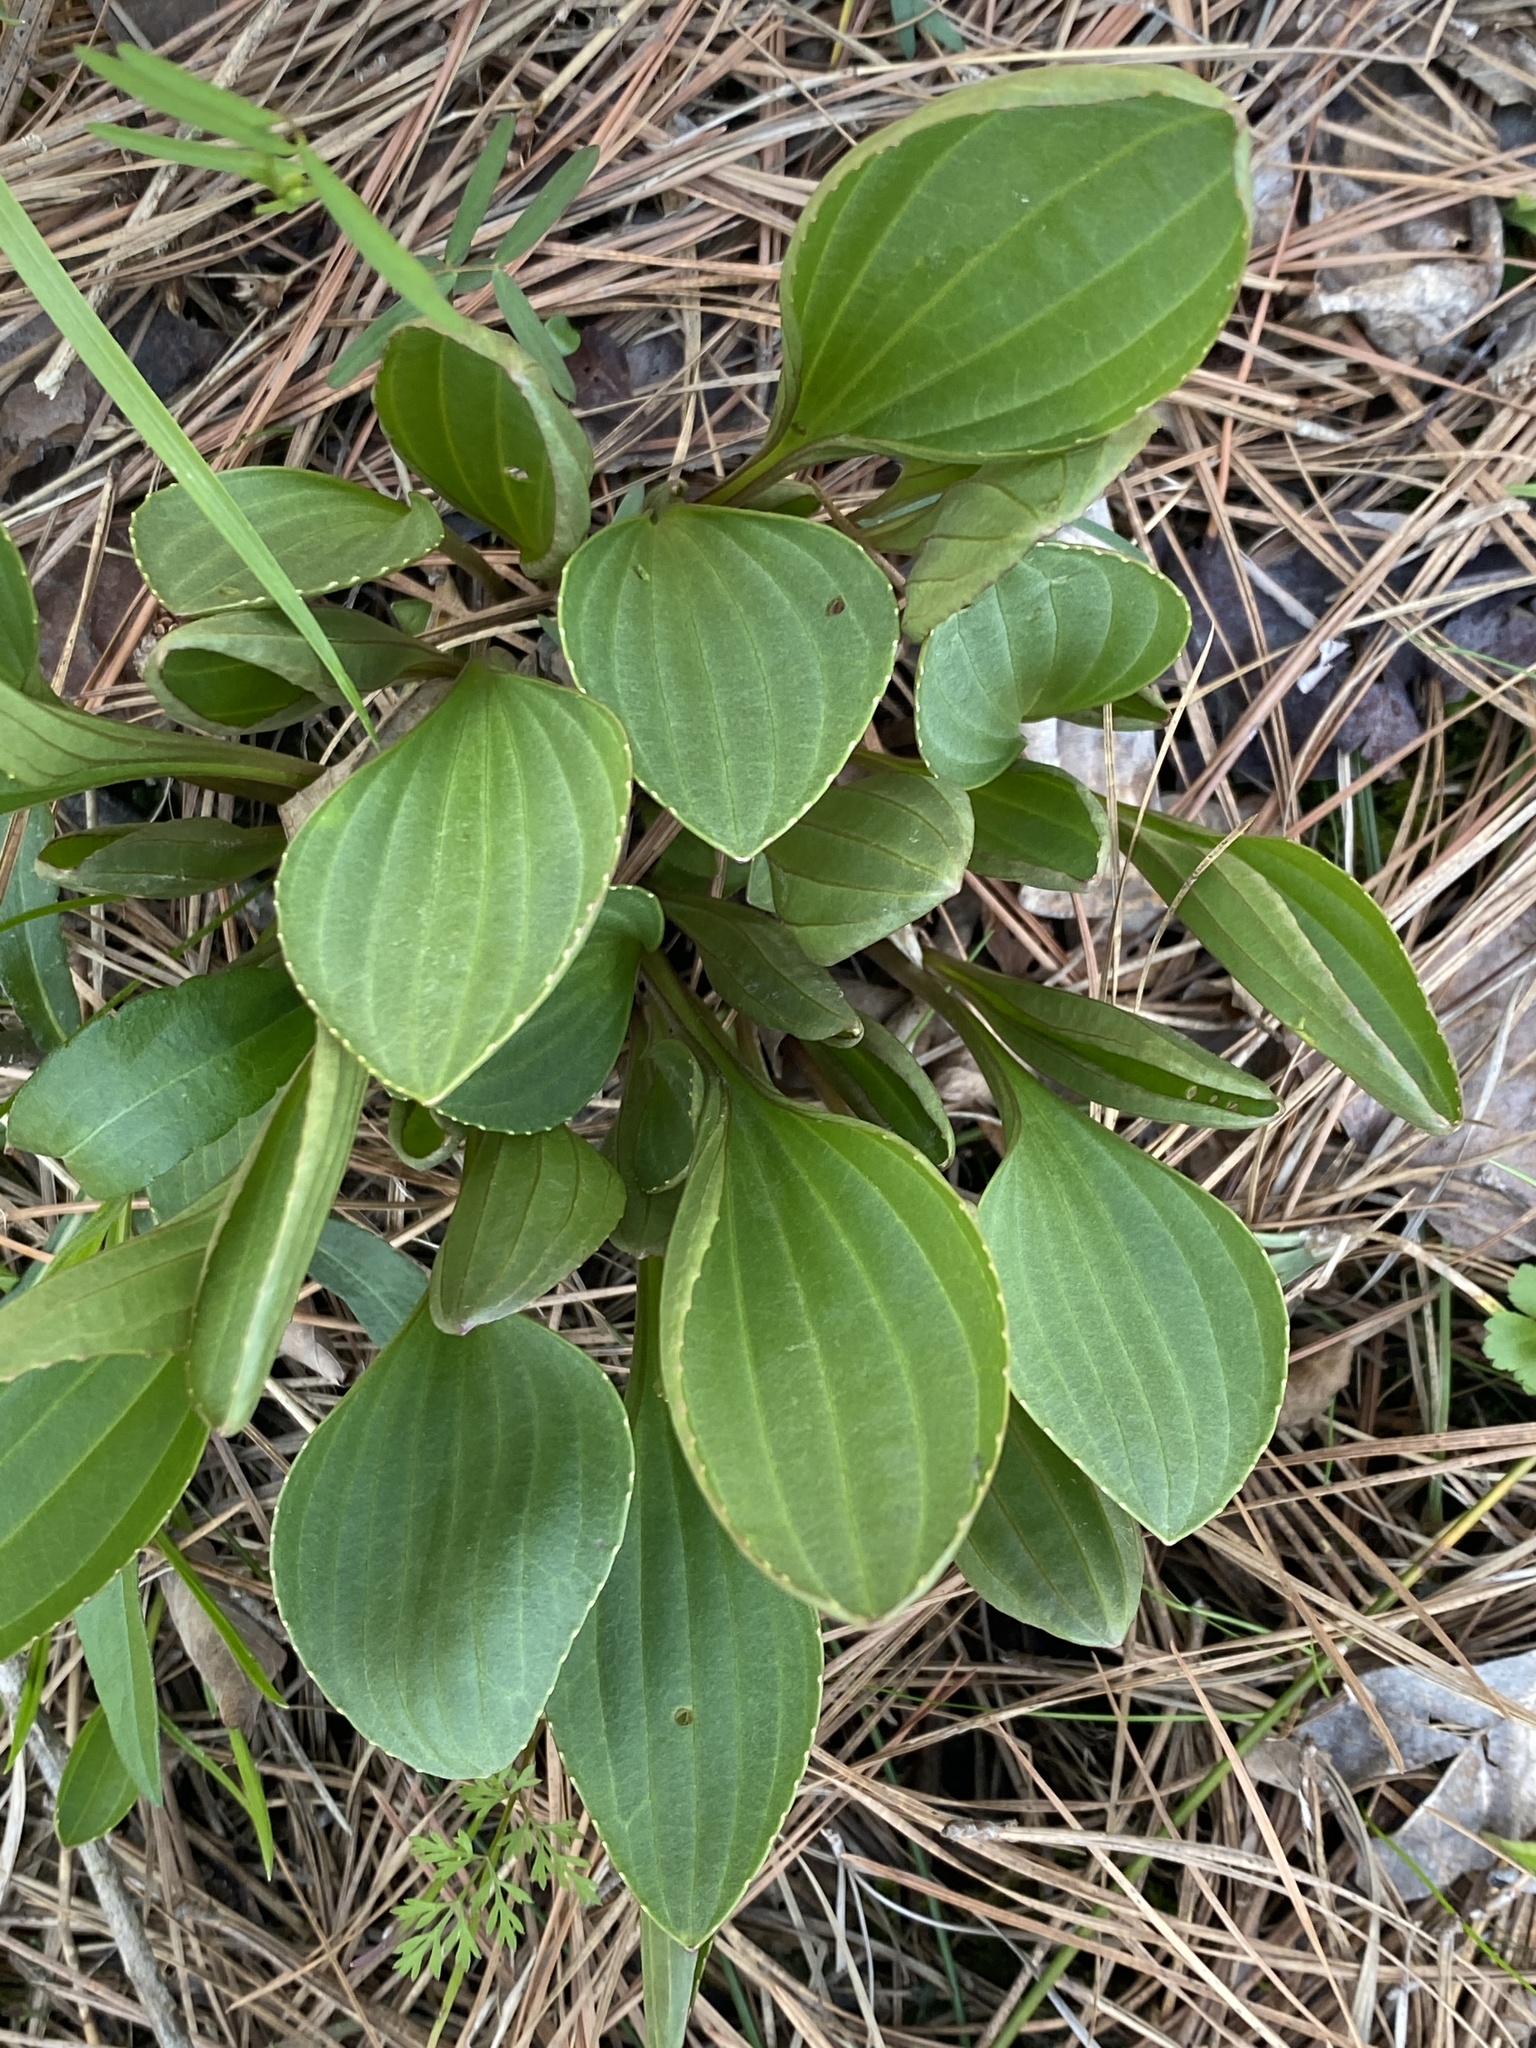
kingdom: Plantae
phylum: Tracheophyta
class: Magnoliopsida
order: Asterales
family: Asteraceae
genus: Arnoglossum
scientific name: Arnoglossum plantagineum
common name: Groove-stemmed indian-plantain
